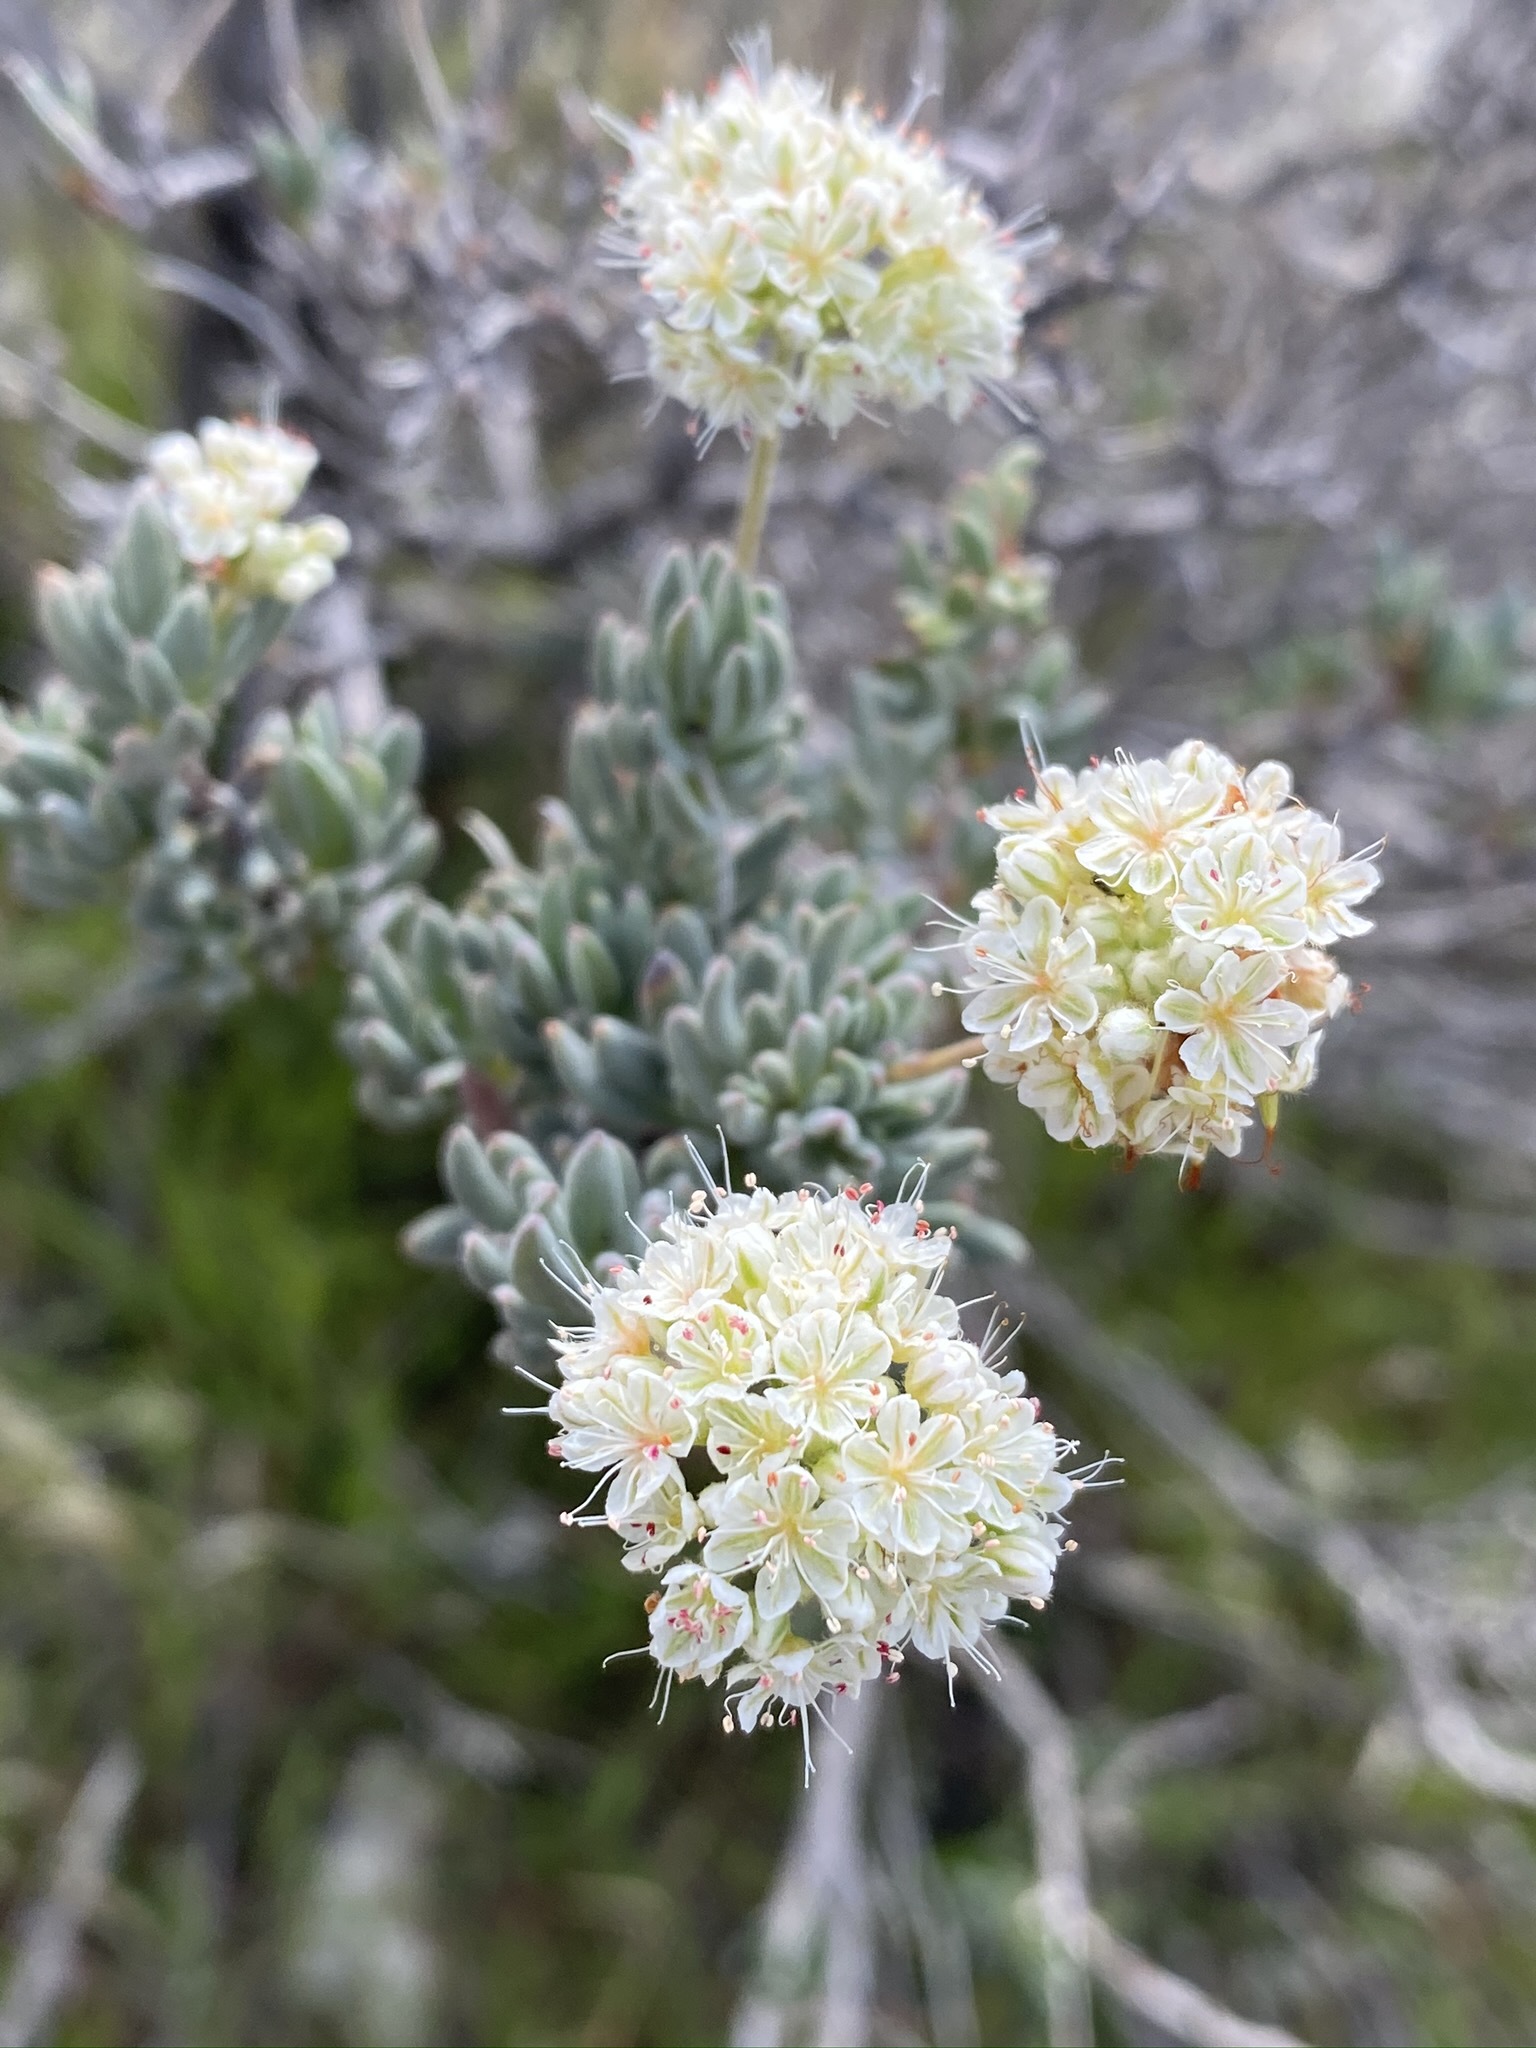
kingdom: Plantae
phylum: Tracheophyta
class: Magnoliopsida
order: Caryophyllales
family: Polygonaceae
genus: Eriogonum
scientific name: Eriogonum fasciculatum
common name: California wild buckwheat
